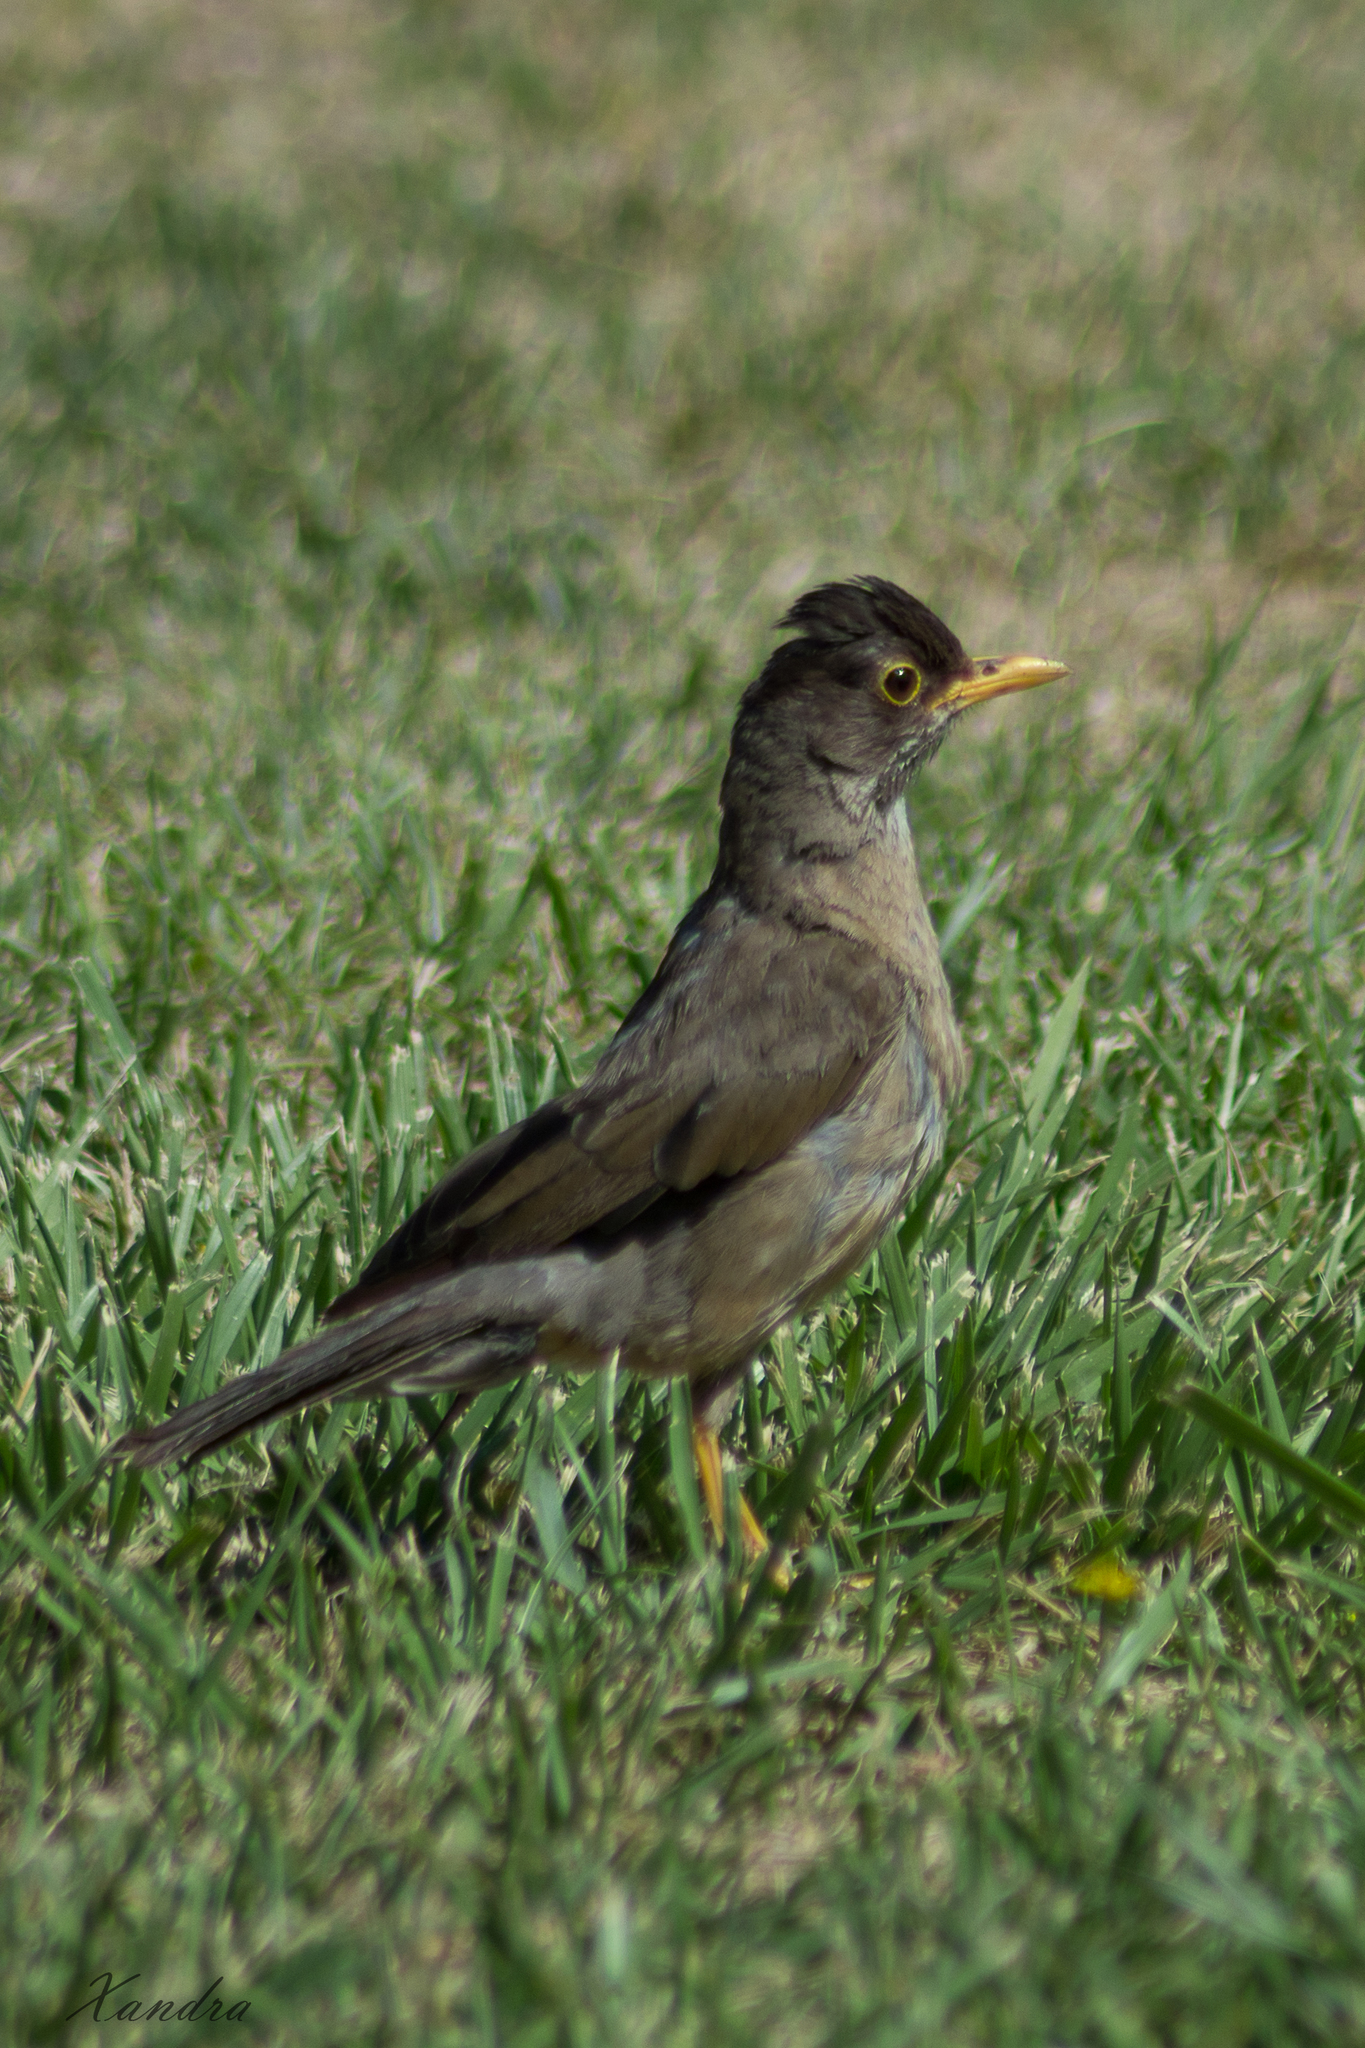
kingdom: Animalia
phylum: Chordata
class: Aves
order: Passeriformes
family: Turdidae
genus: Turdus
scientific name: Turdus falcklandii
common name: Austral thrush
